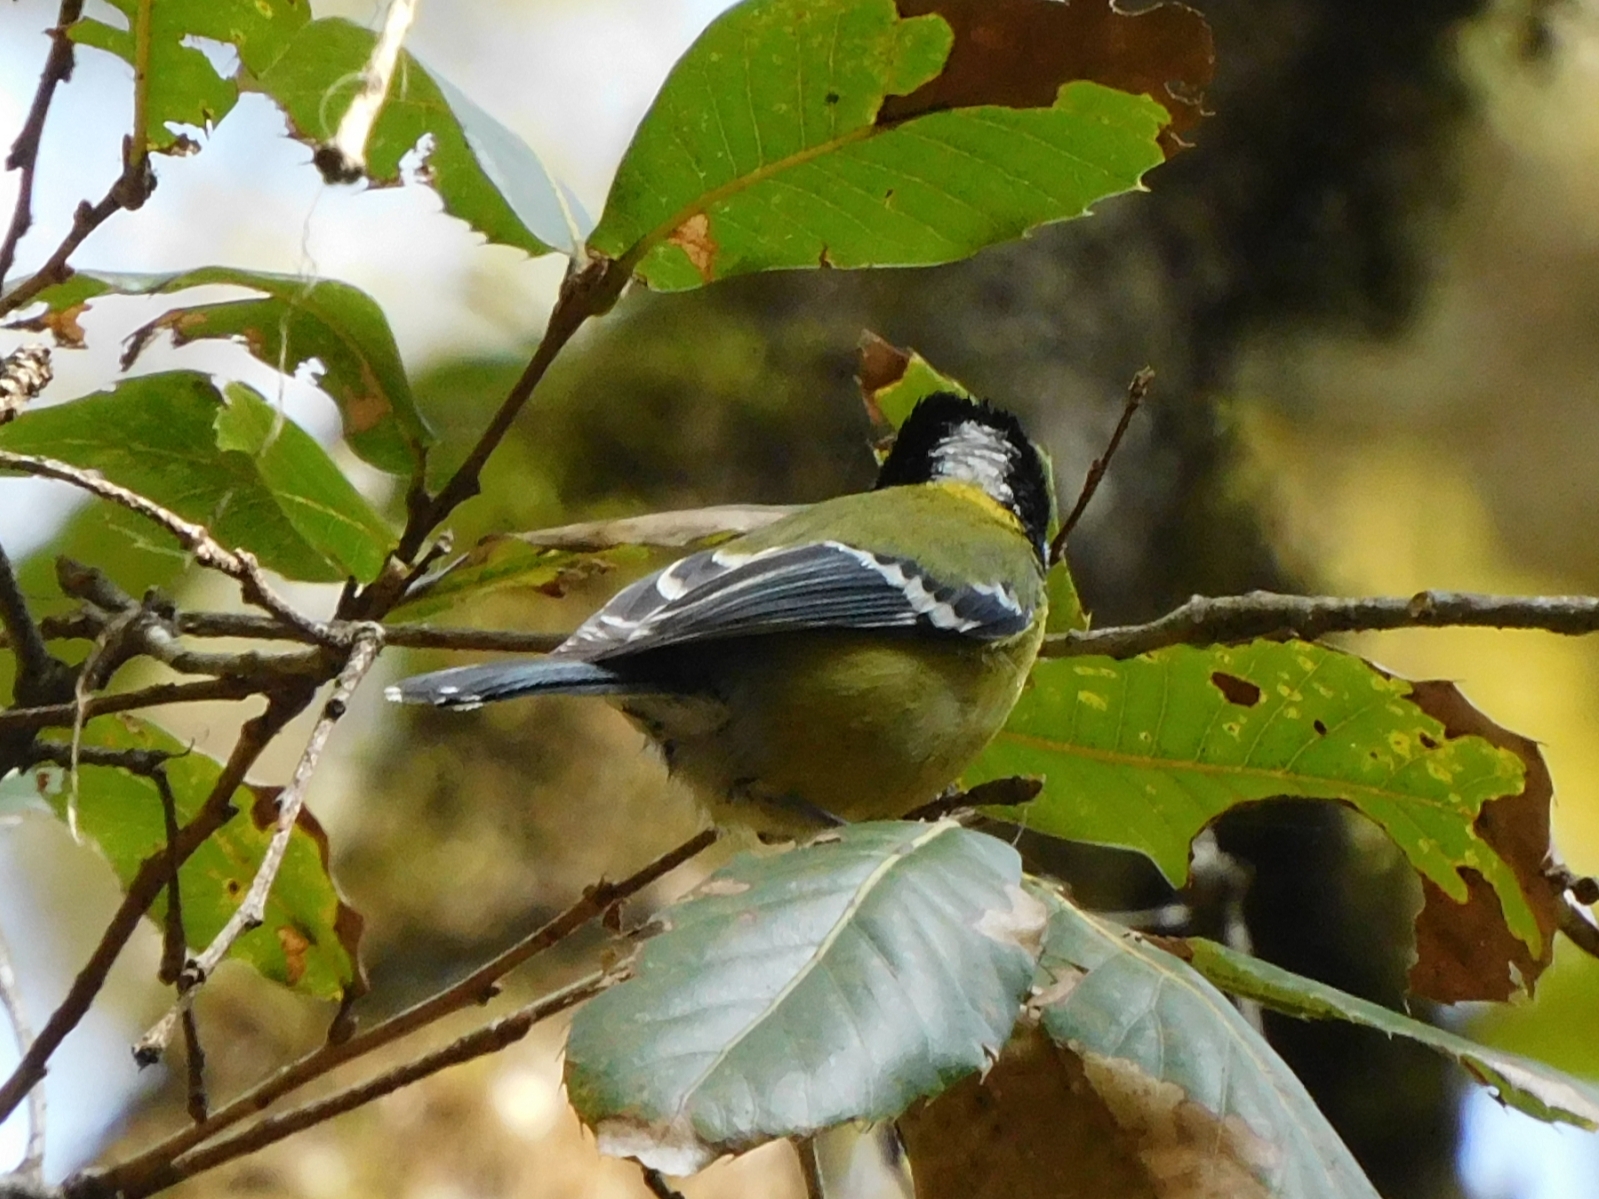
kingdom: Animalia
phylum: Chordata
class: Aves
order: Passeriformes
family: Paridae
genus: Parus
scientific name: Parus monticolus
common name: Green-backed tit
